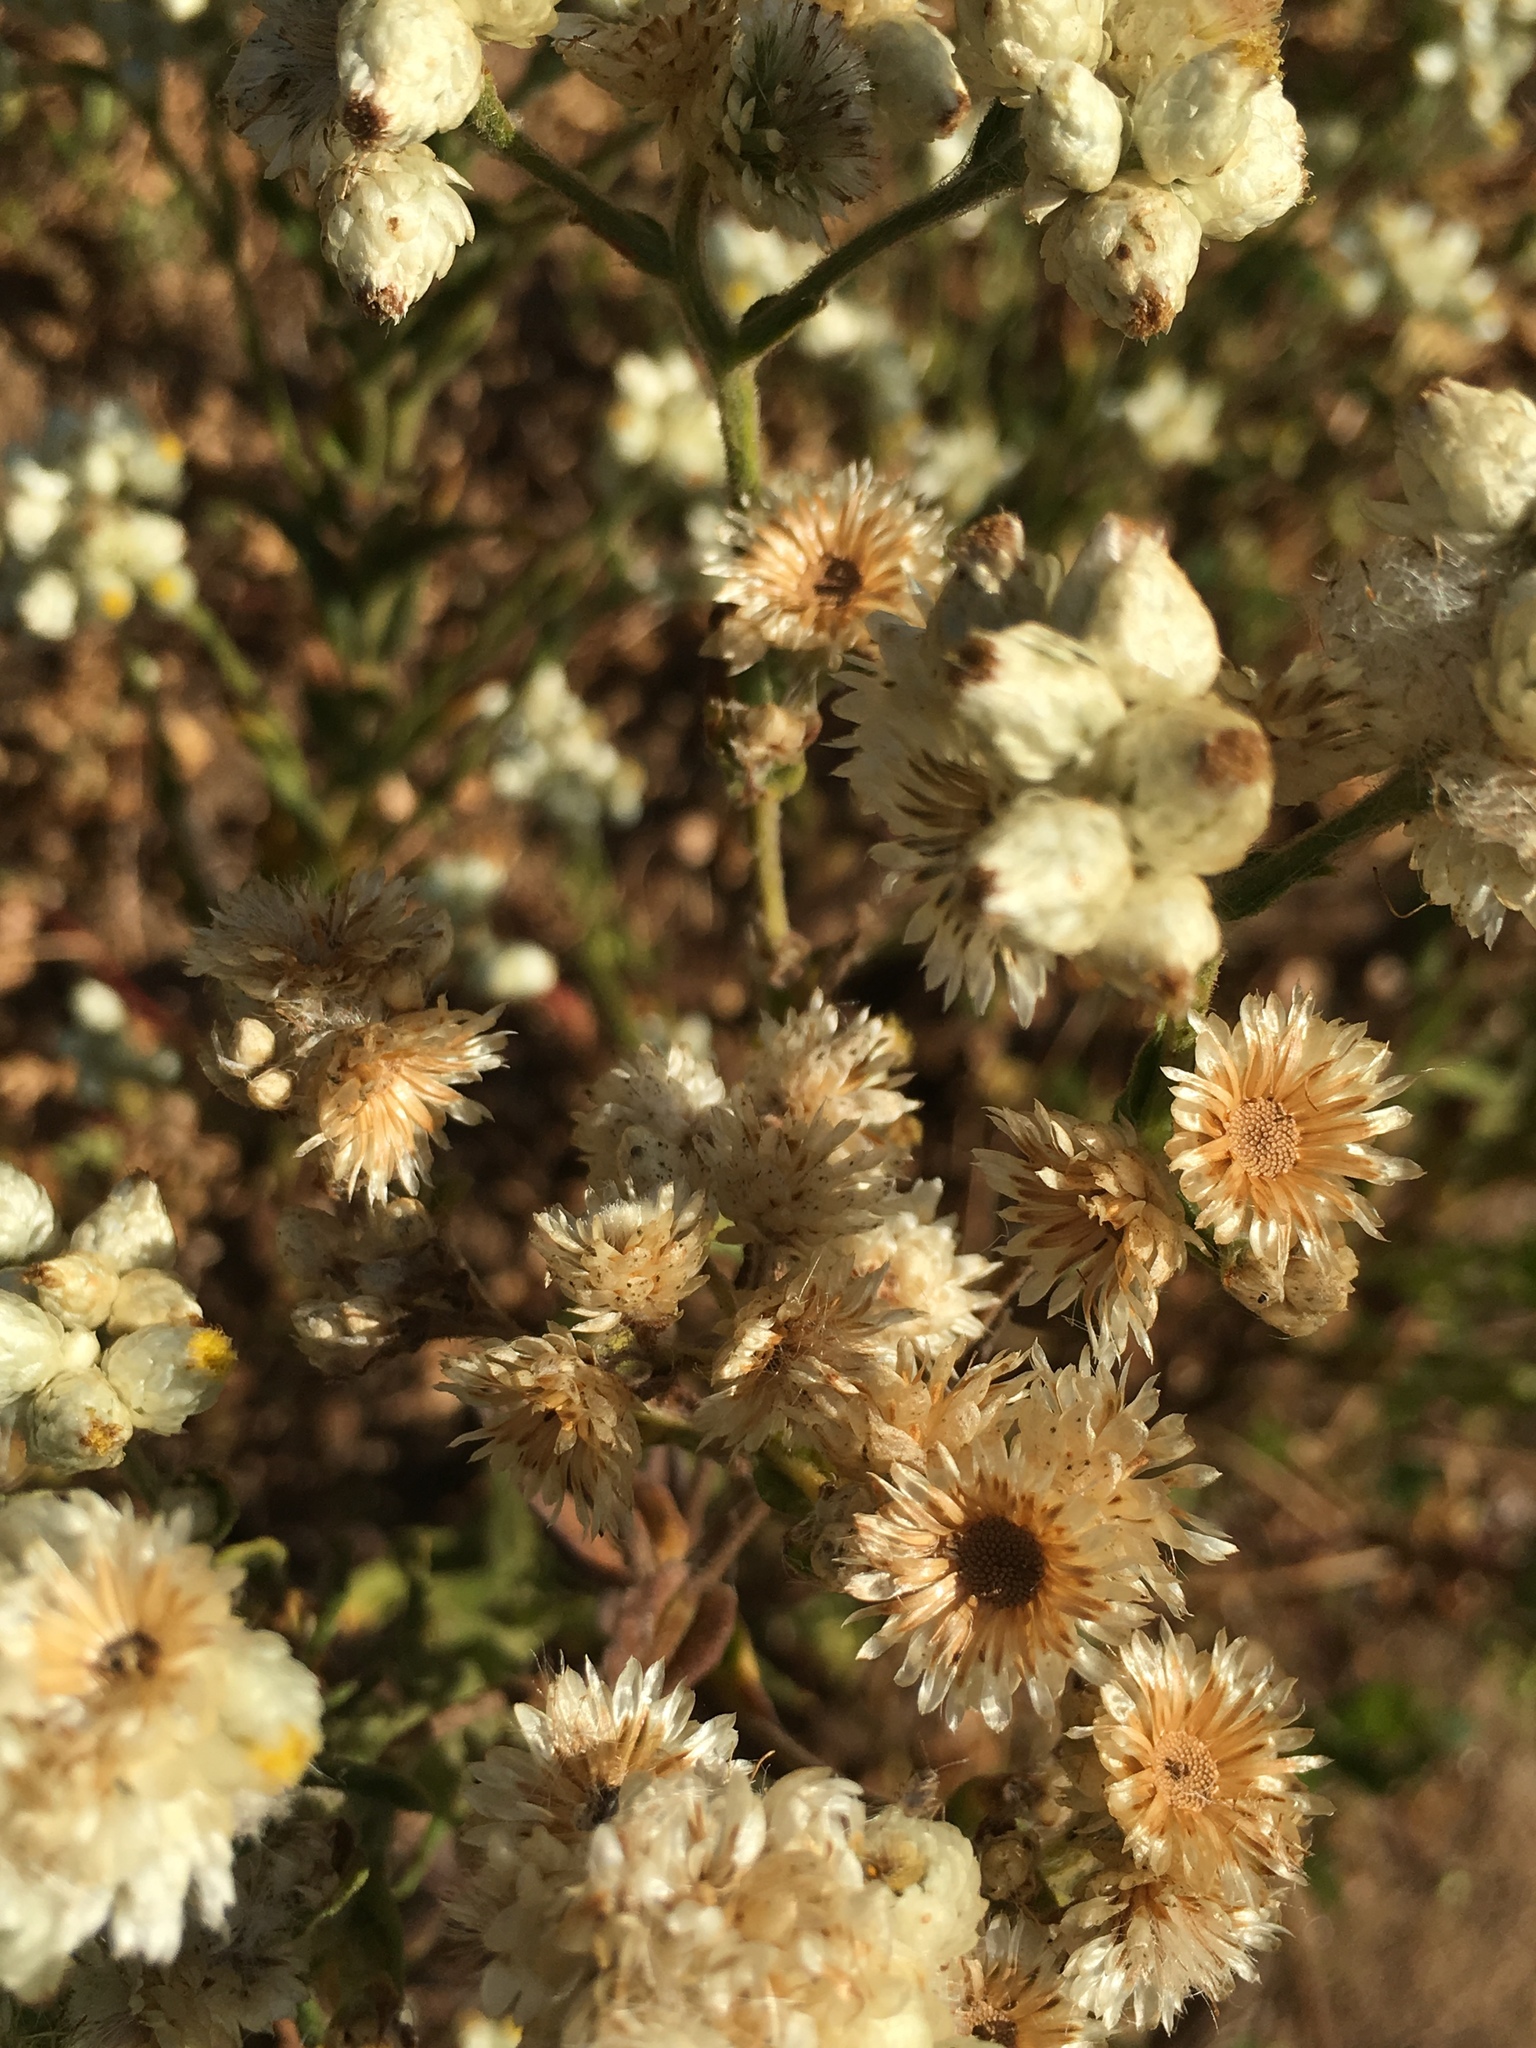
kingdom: Plantae
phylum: Tracheophyta
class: Magnoliopsida
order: Asterales
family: Asteraceae
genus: Pseudognaphalium
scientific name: Pseudognaphalium californicum
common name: California rabbit-tobacco
